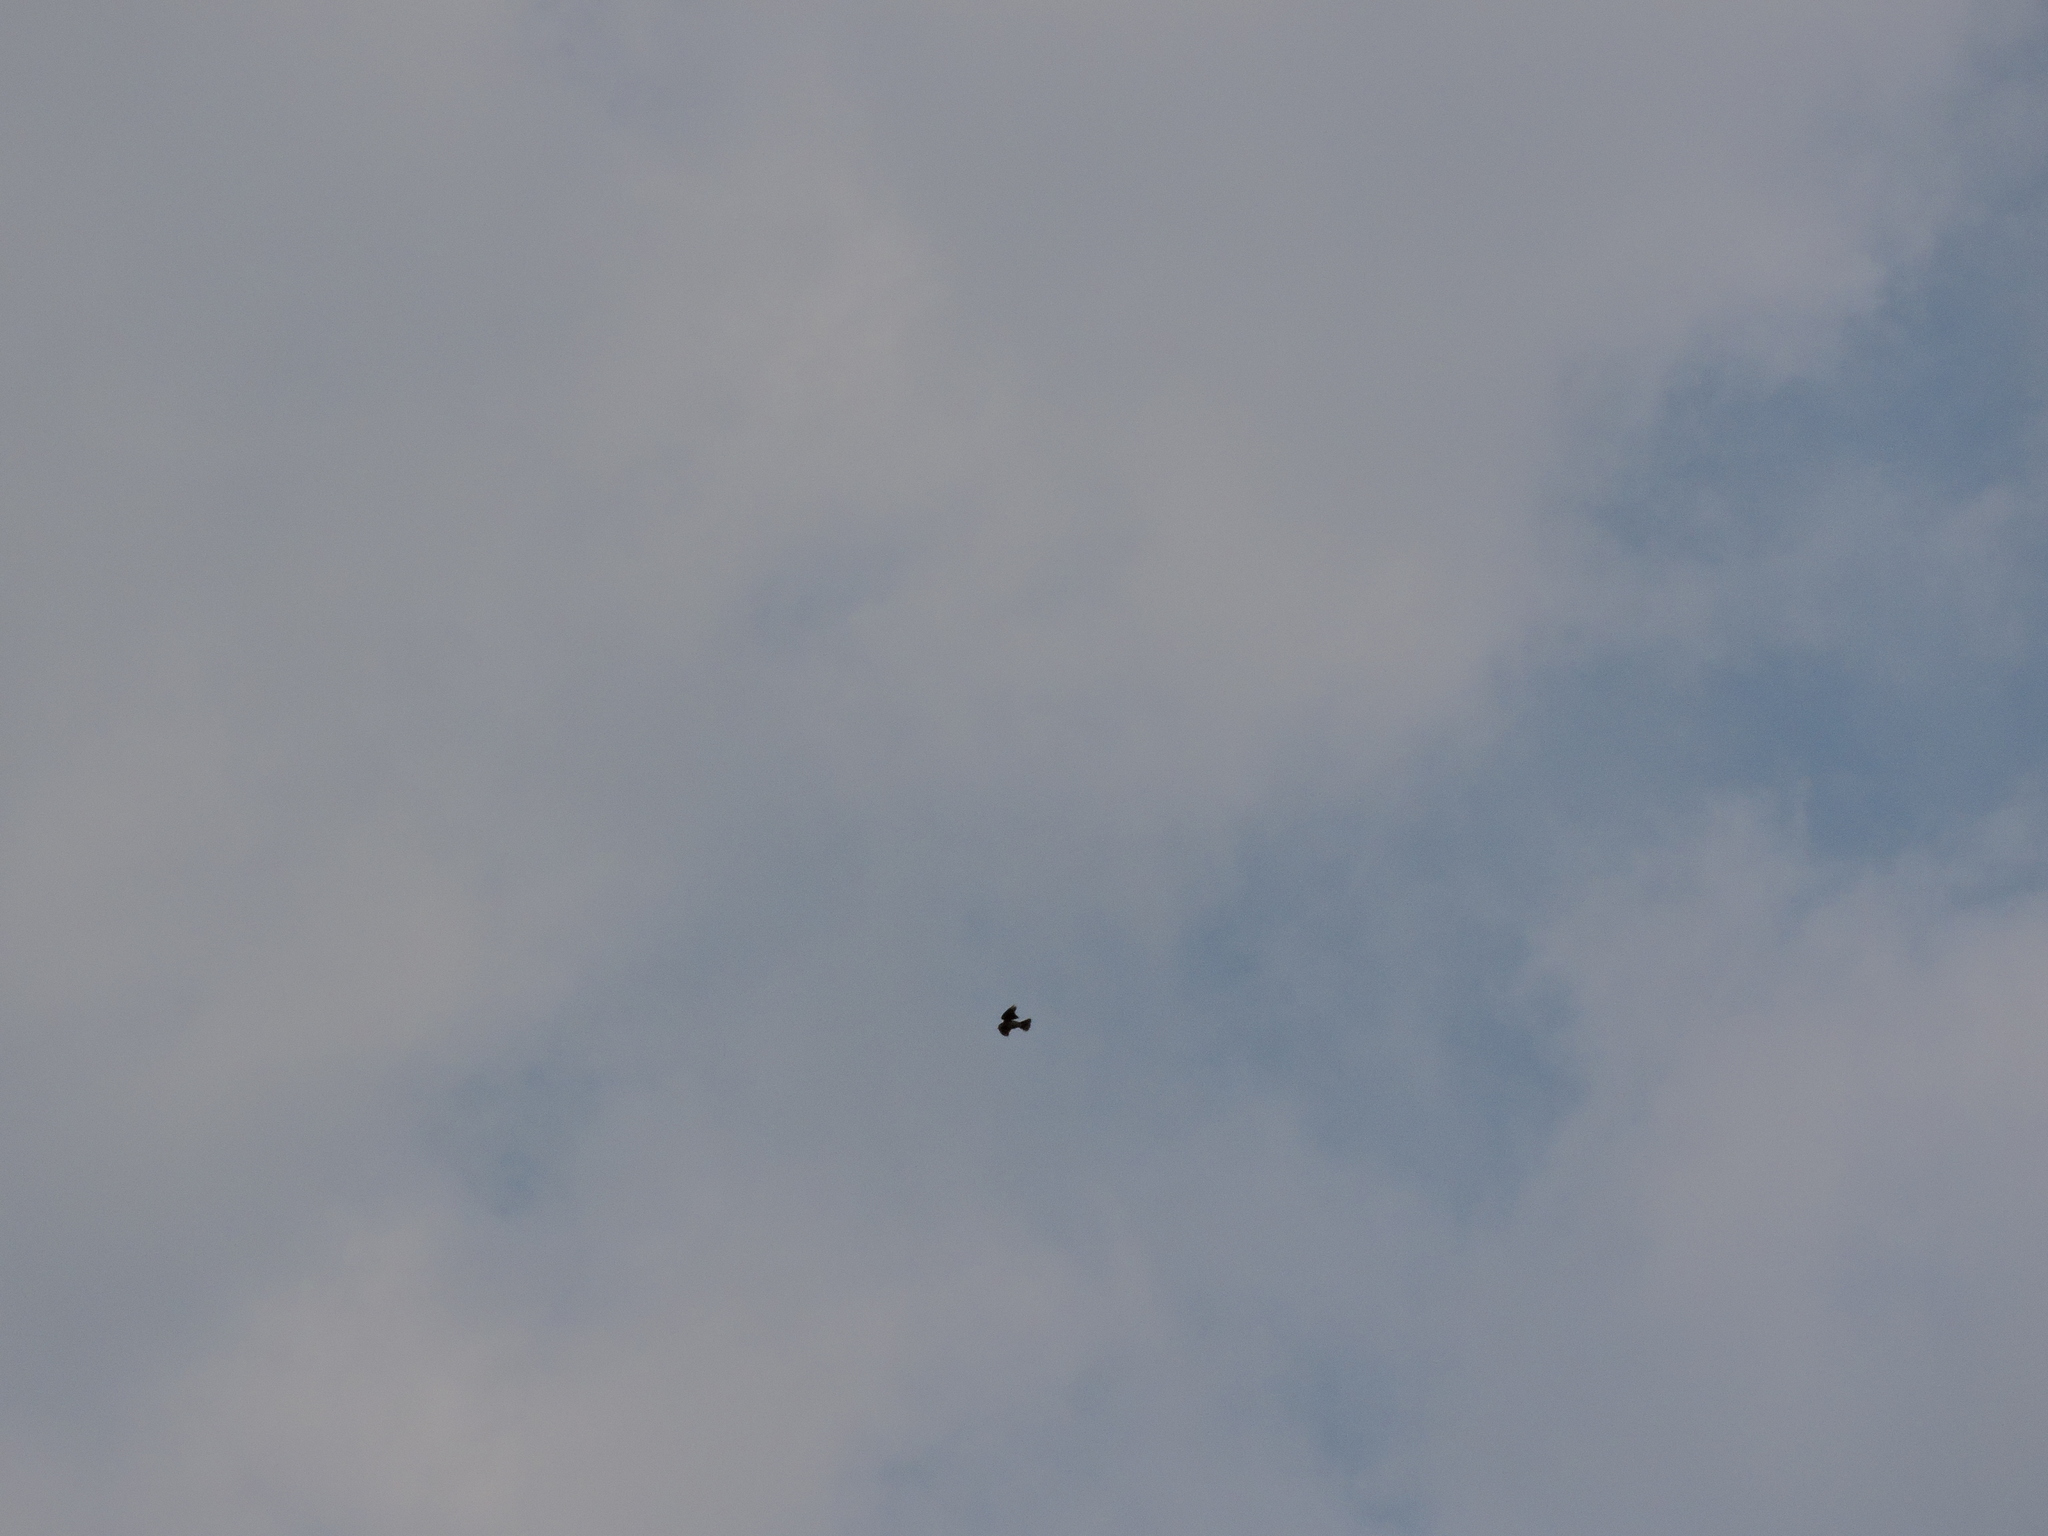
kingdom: Animalia
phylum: Chordata
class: Aves
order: Passeriformes
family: Alaudidae
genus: Alauda
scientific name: Alauda arvensis
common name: Eurasian skylark
